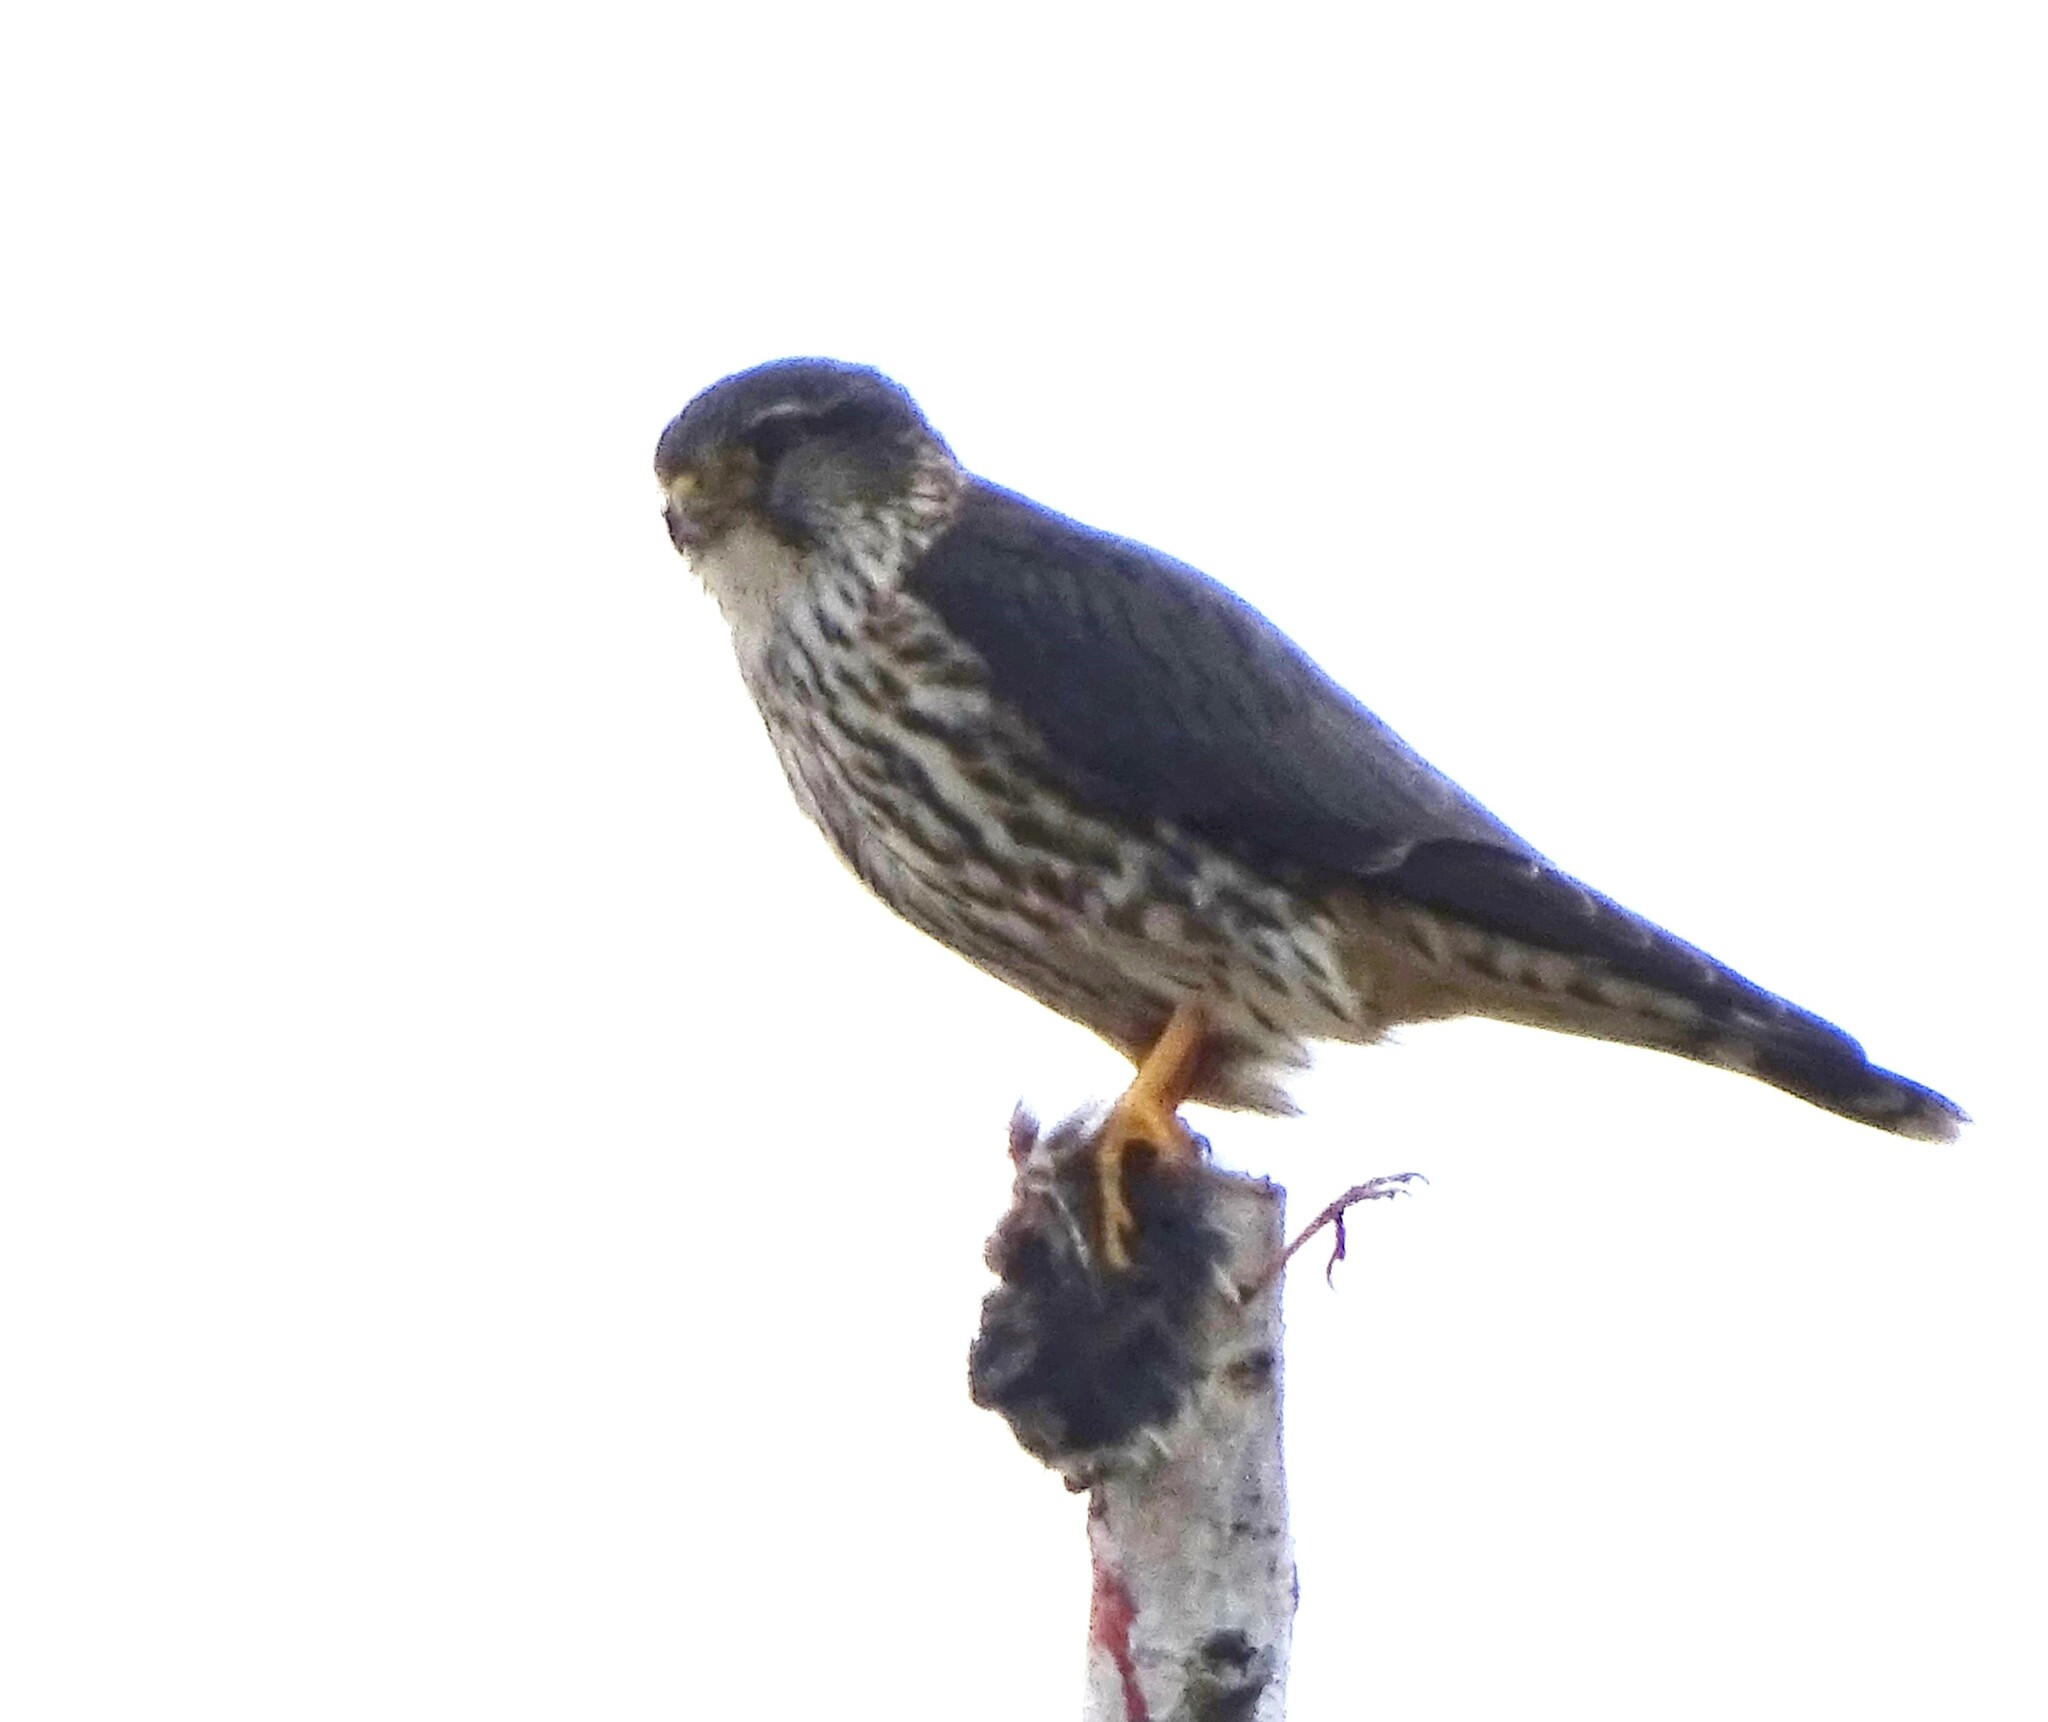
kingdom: Animalia
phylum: Chordata
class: Aves
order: Falconiformes
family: Falconidae
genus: Falco
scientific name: Falco columbarius
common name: Merlin
